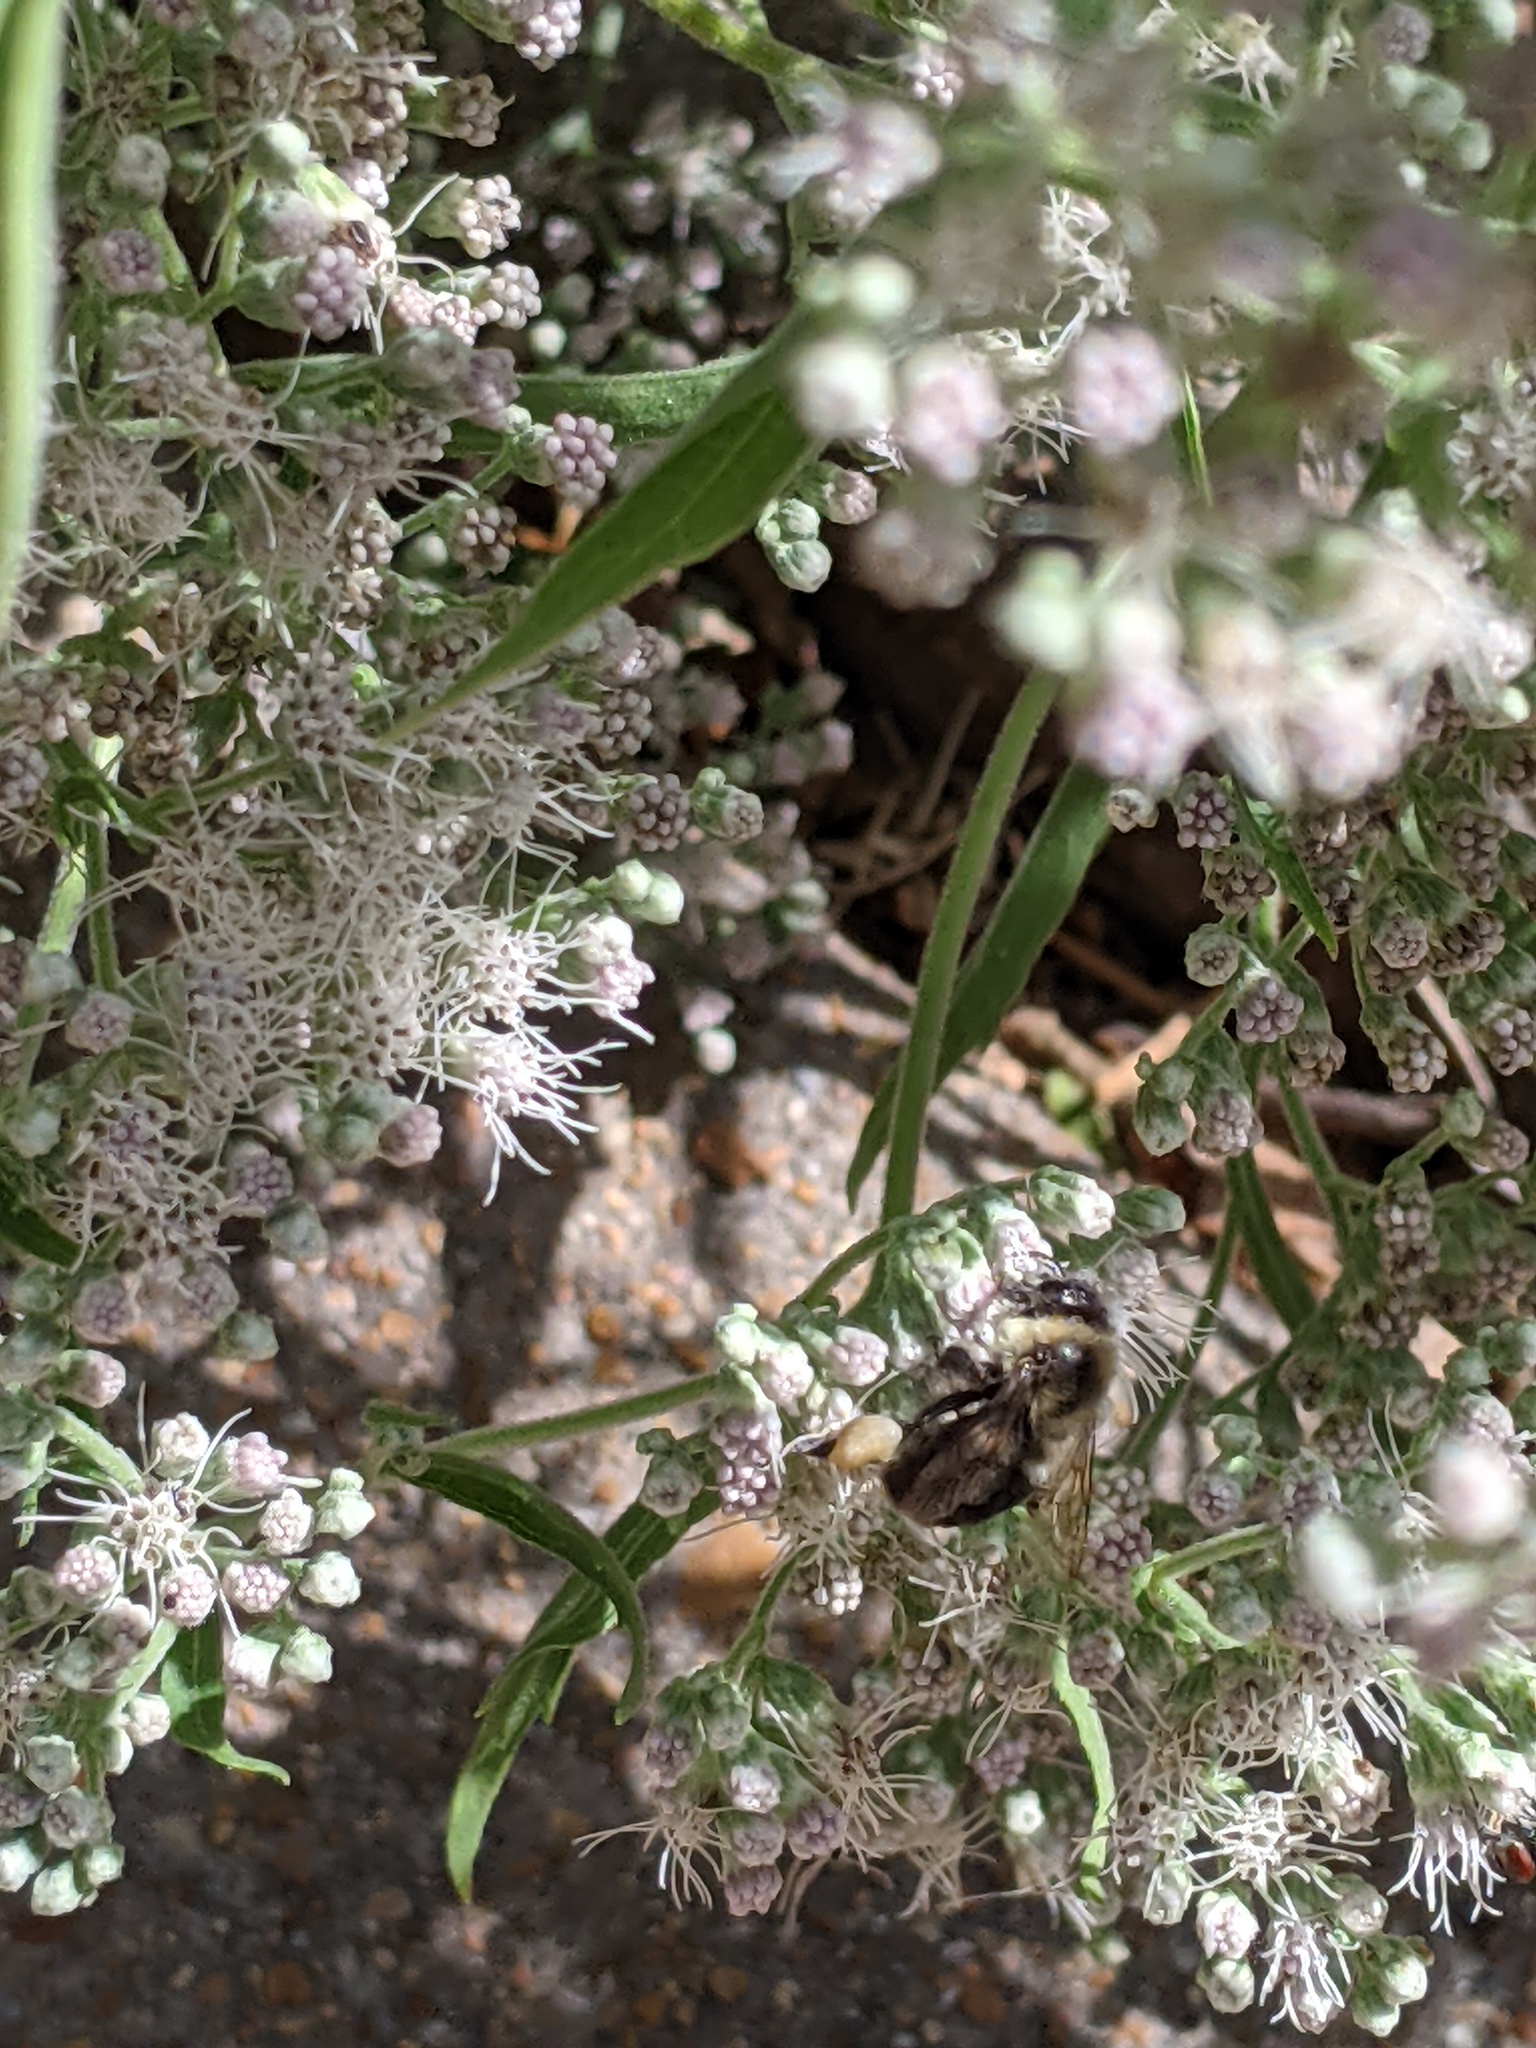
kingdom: Animalia
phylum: Arthropoda
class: Insecta
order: Hymenoptera
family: Apidae
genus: Bombus
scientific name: Bombus impatiens
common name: Common eastern bumble bee
